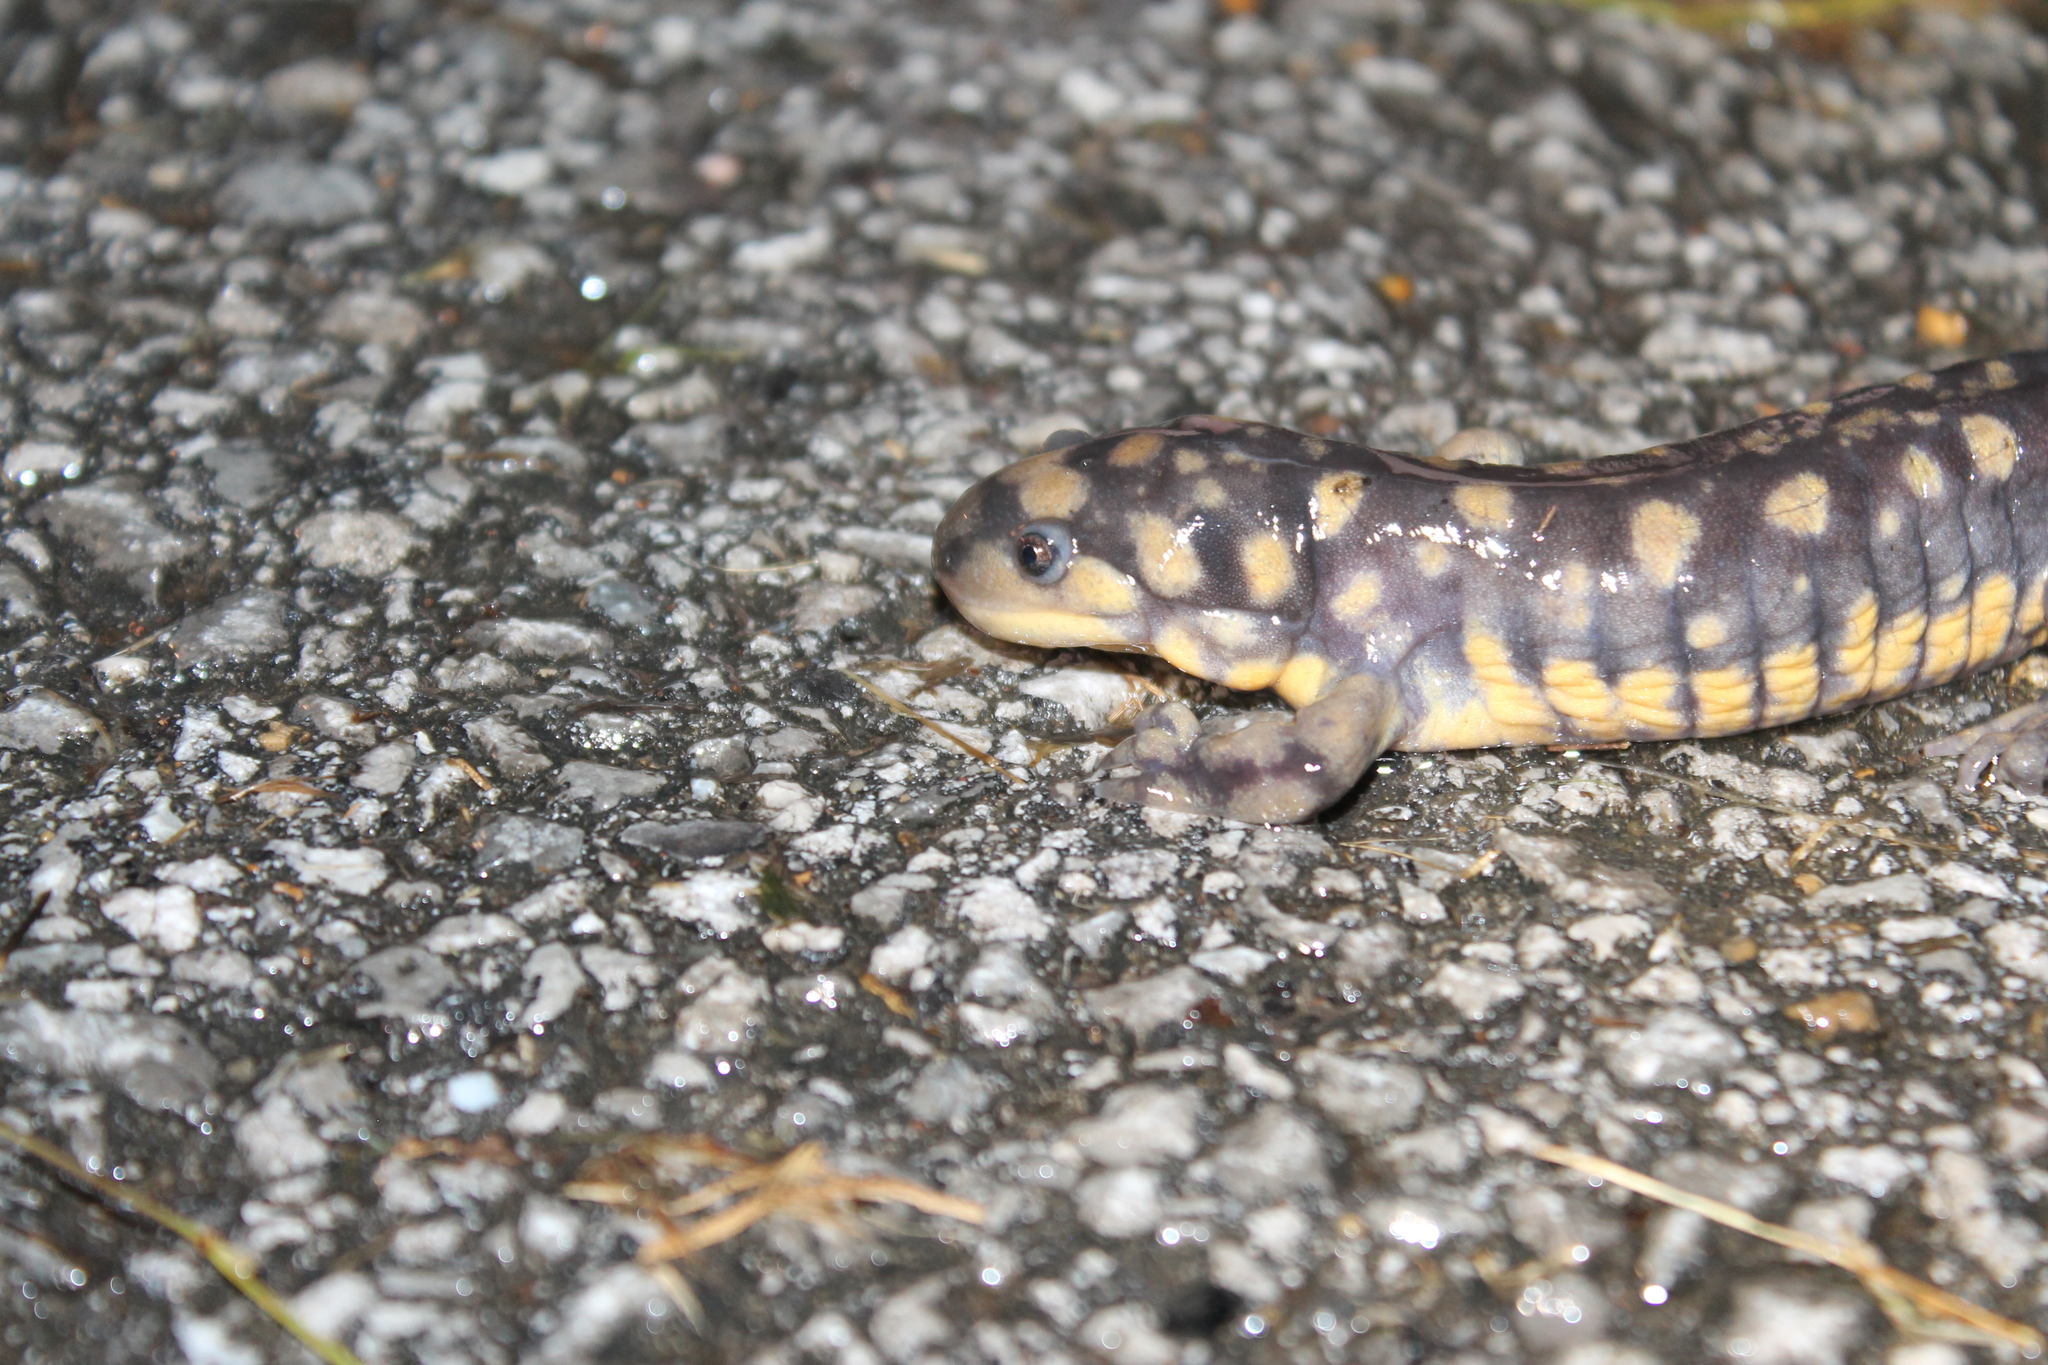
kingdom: Animalia
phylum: Chordata
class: Amphibia
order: Caudata
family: Ambystomatidae
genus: Ambystoma
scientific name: Ambystoma tigrinum
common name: Tiger salamander
